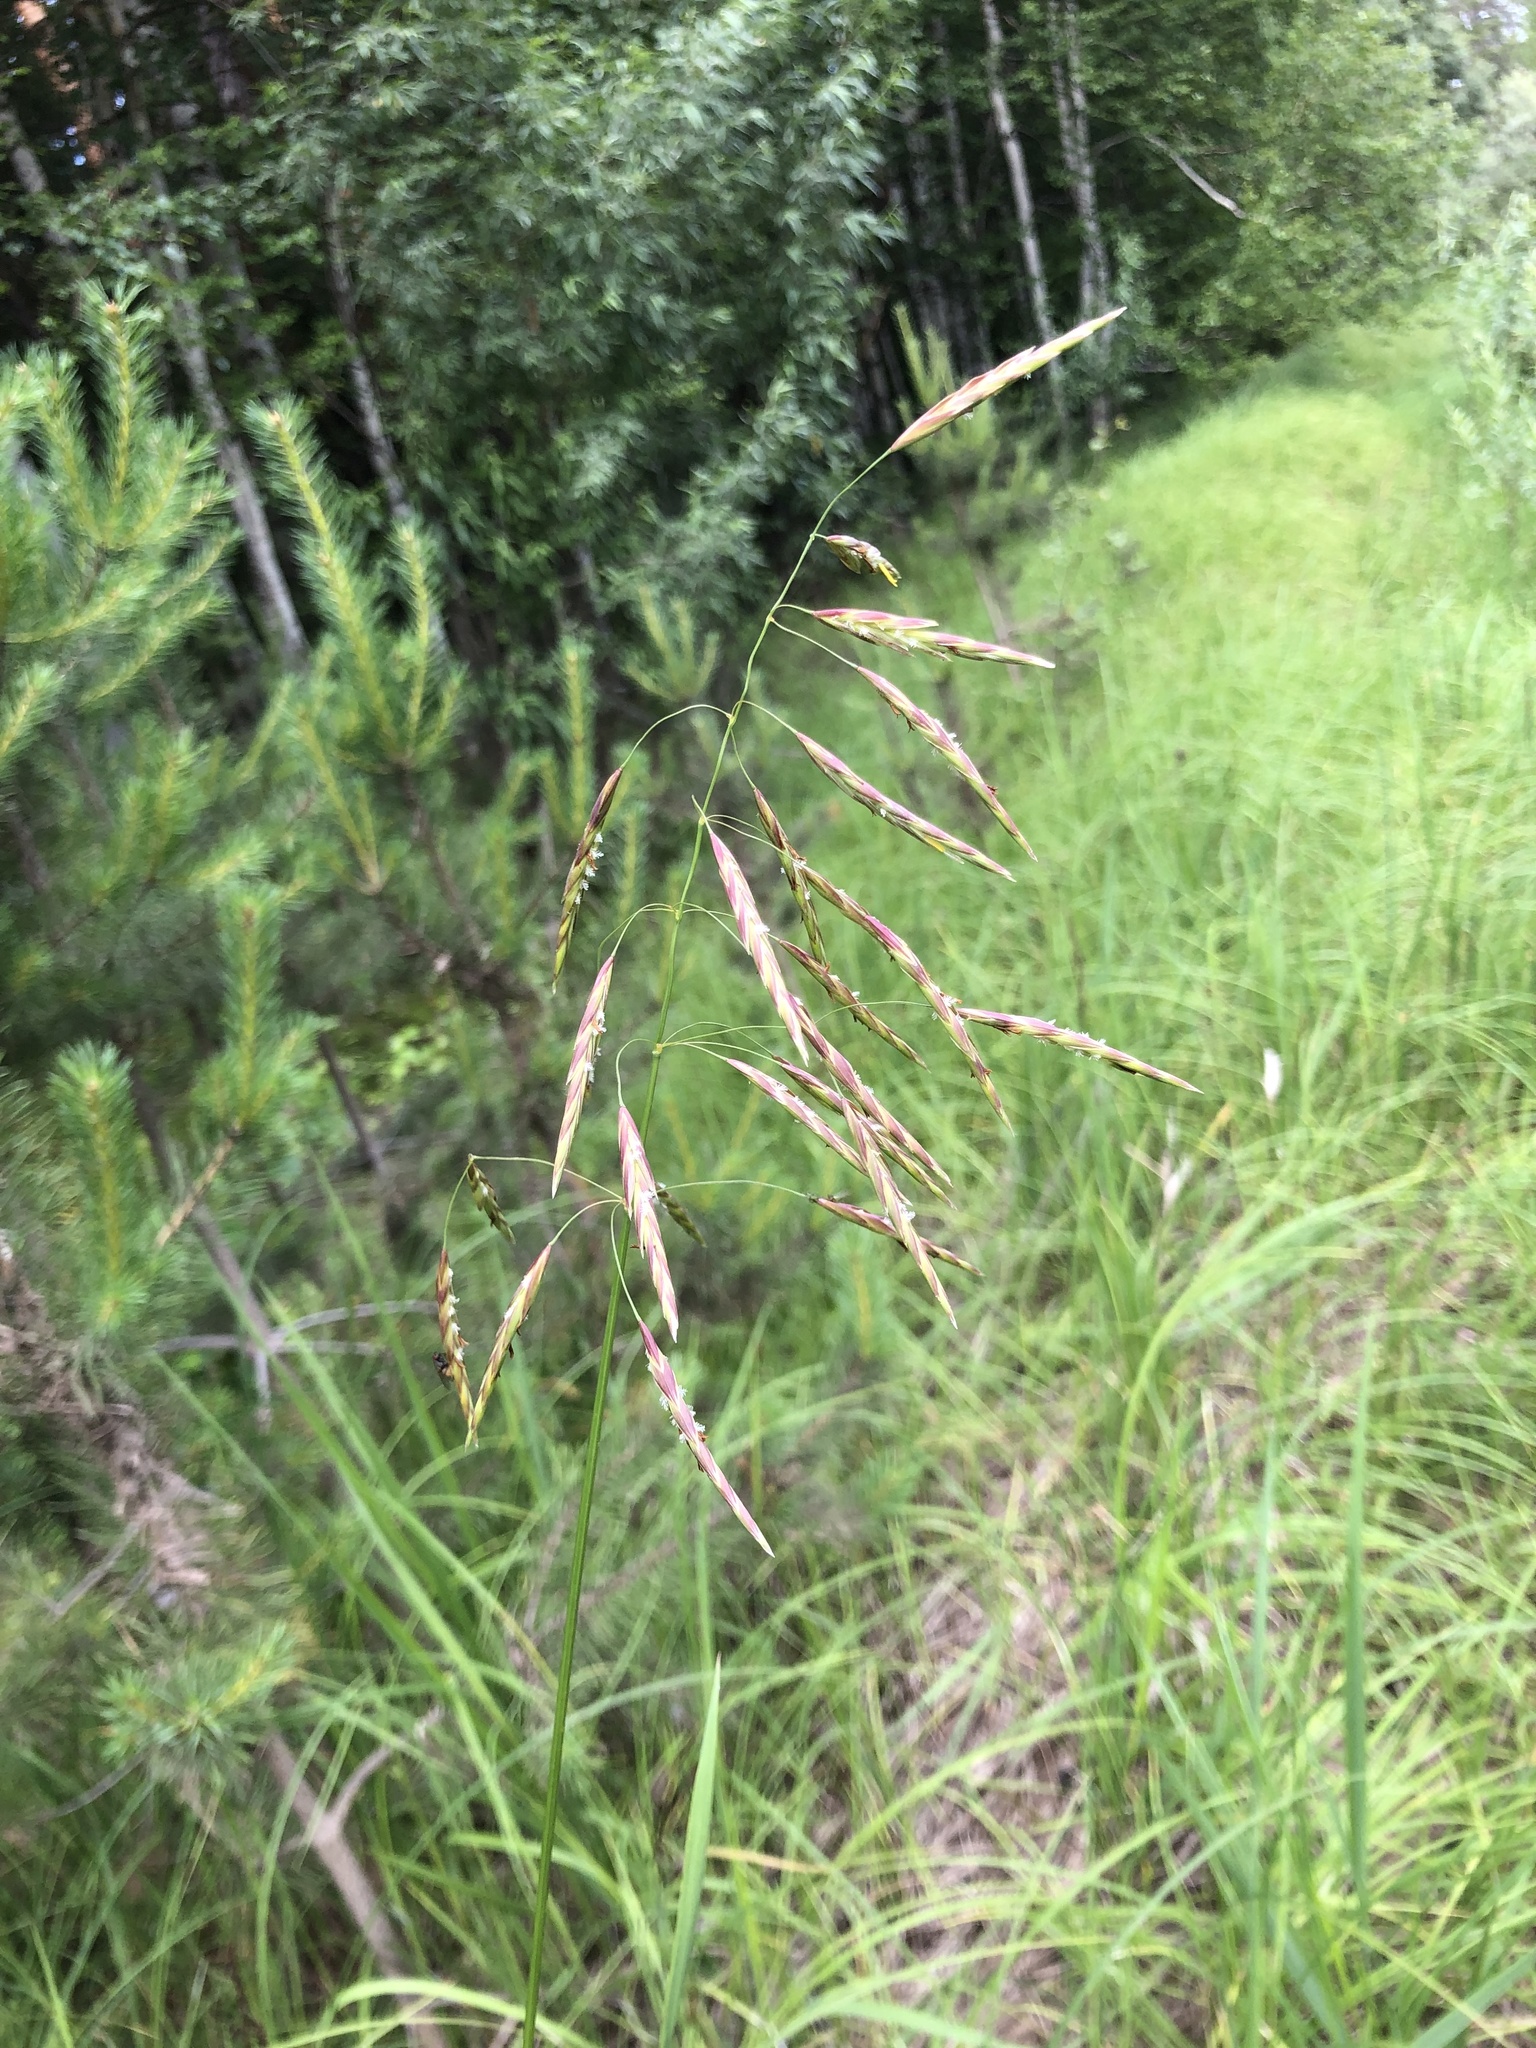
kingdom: Plantae
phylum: Tracheophyta
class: Liliopsida
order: Poales
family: Poaceae
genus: Bromus
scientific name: Bromus inermis
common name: Smooth brome
